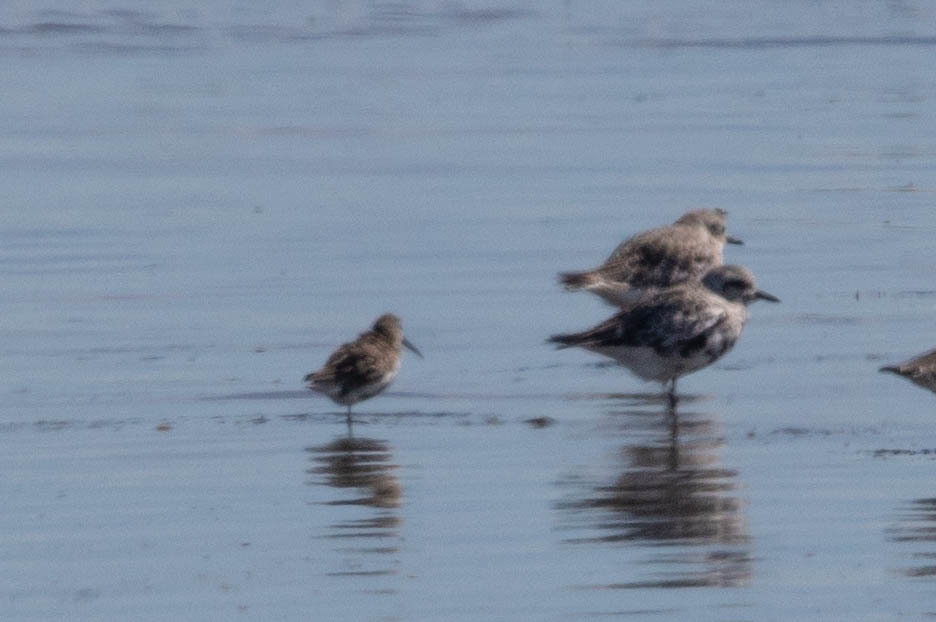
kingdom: Animalia
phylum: Chordata
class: Aves
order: Charadriiformes
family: Scolopacidae
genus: Calidris
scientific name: Calidris alpina
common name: Dunlin
